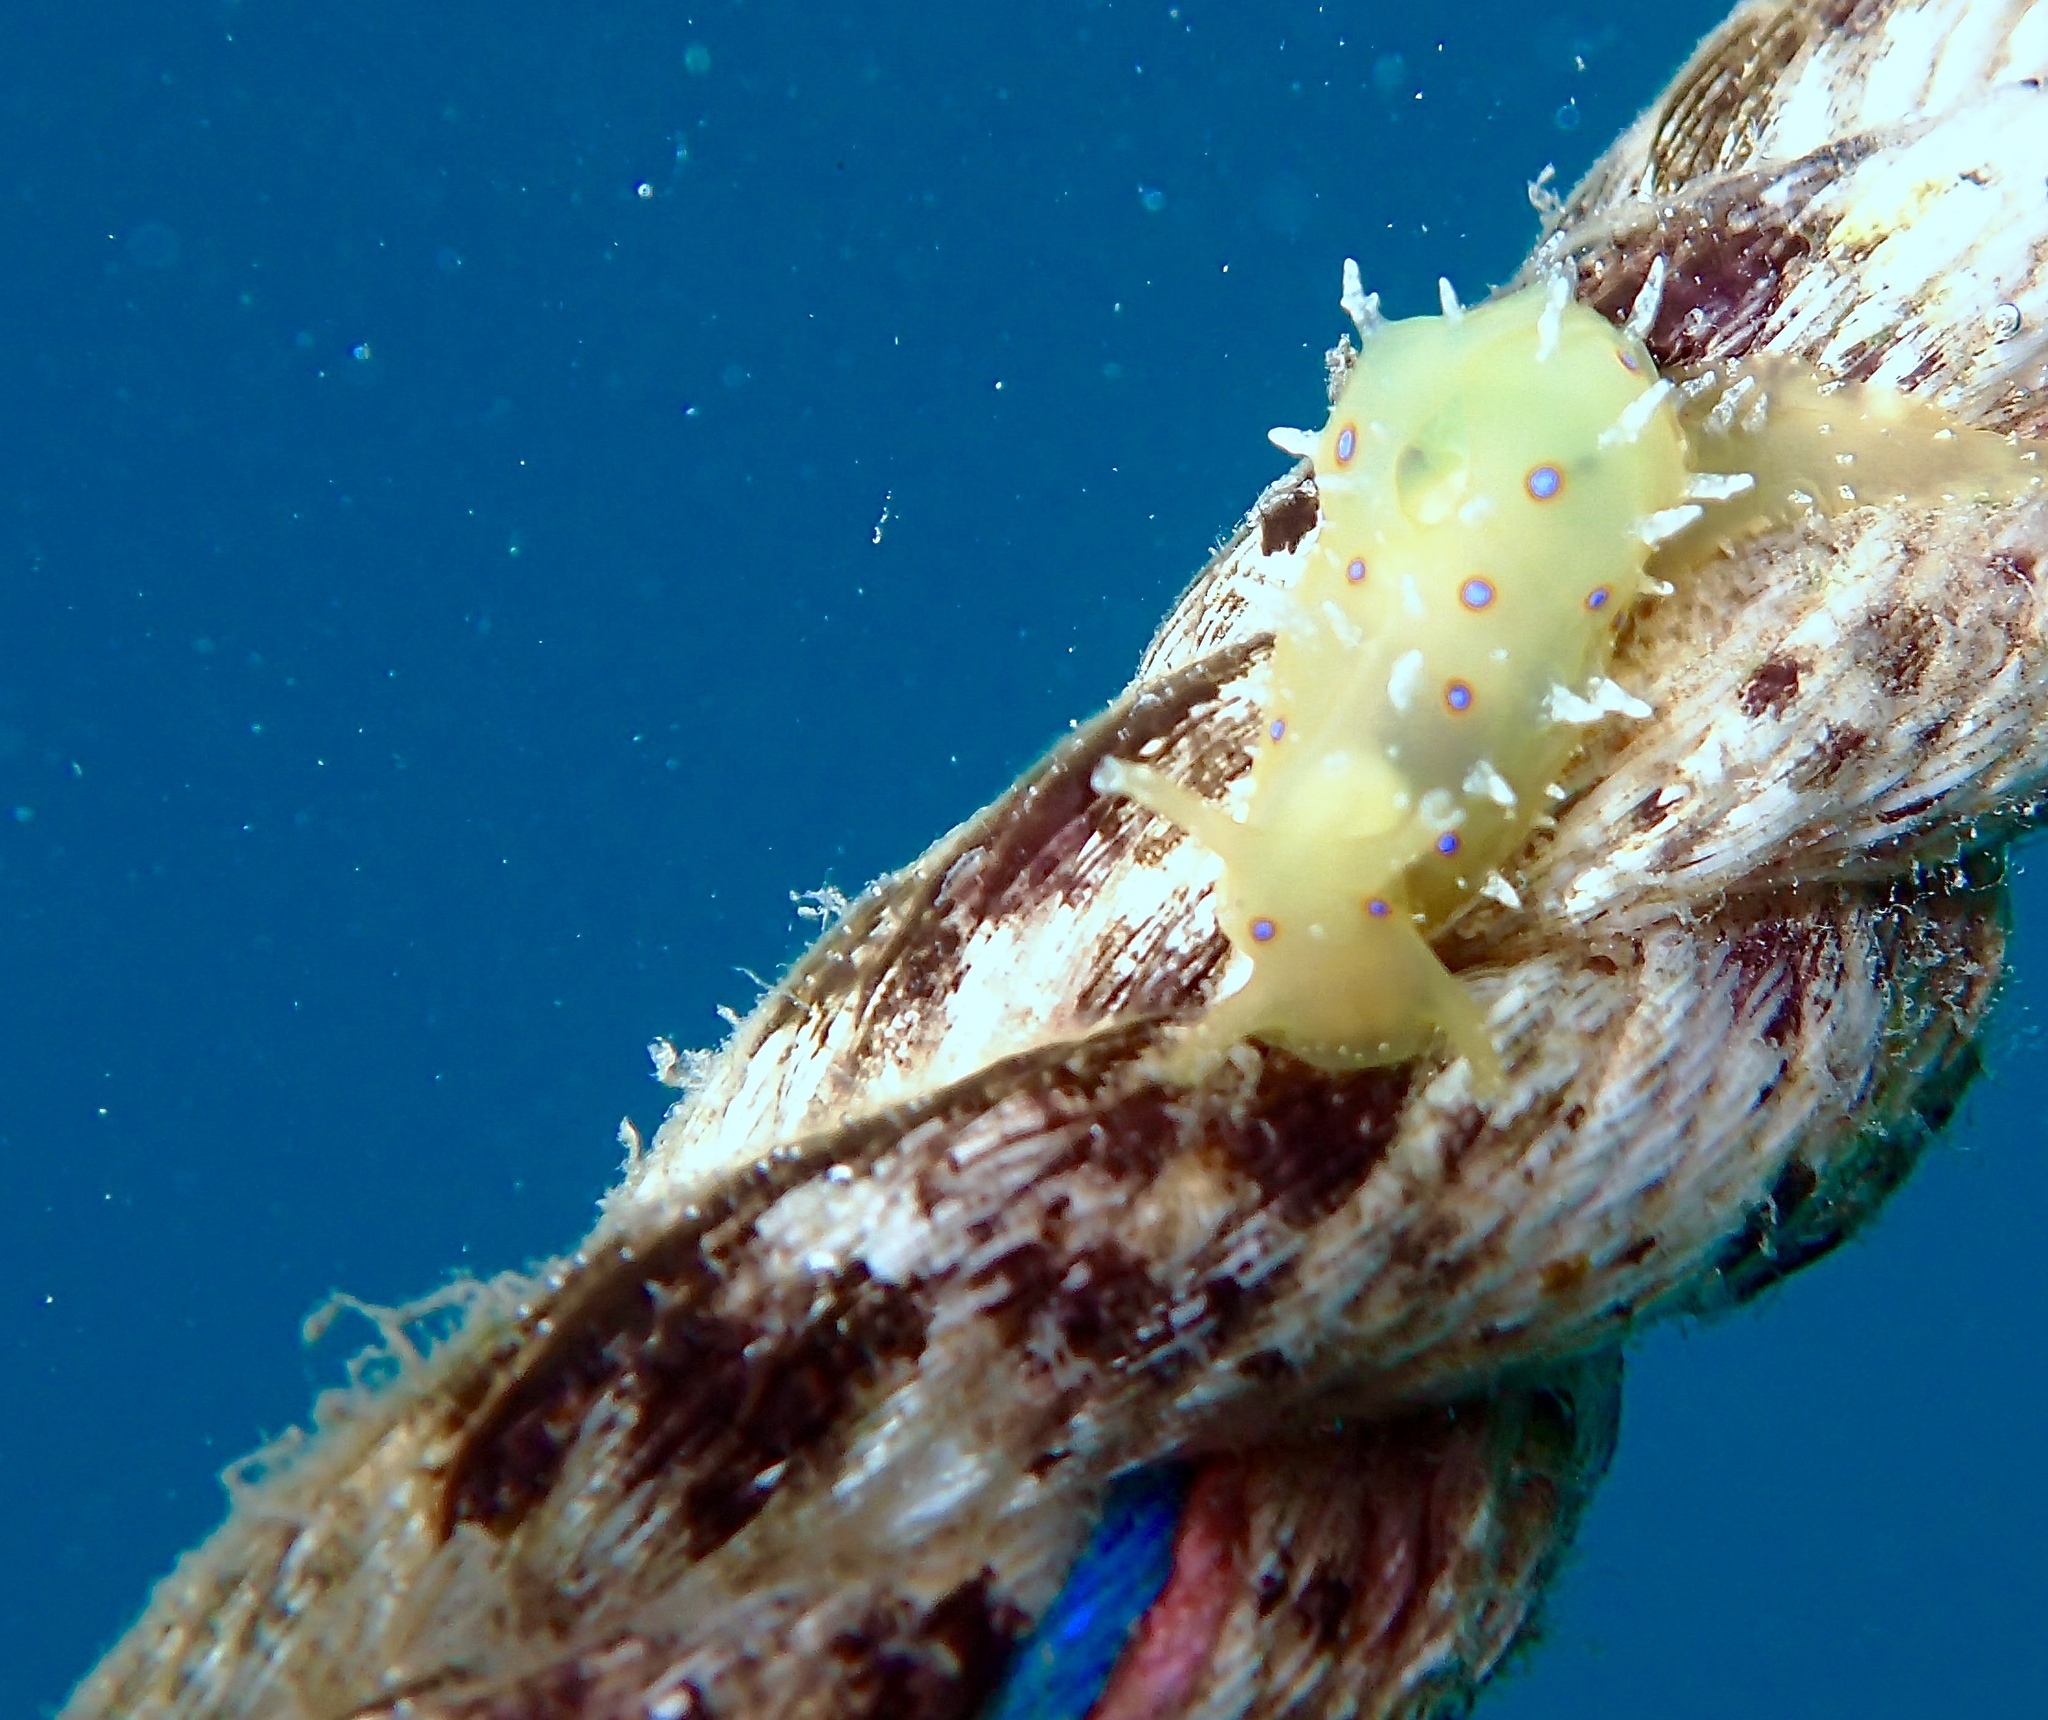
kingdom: Animalia
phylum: Mollusca
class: Gastropoda
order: Aplysiida
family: Aplysiidae
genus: Stylocheilus
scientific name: Stylocheilus longicauda
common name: Blue-ring sea hare
